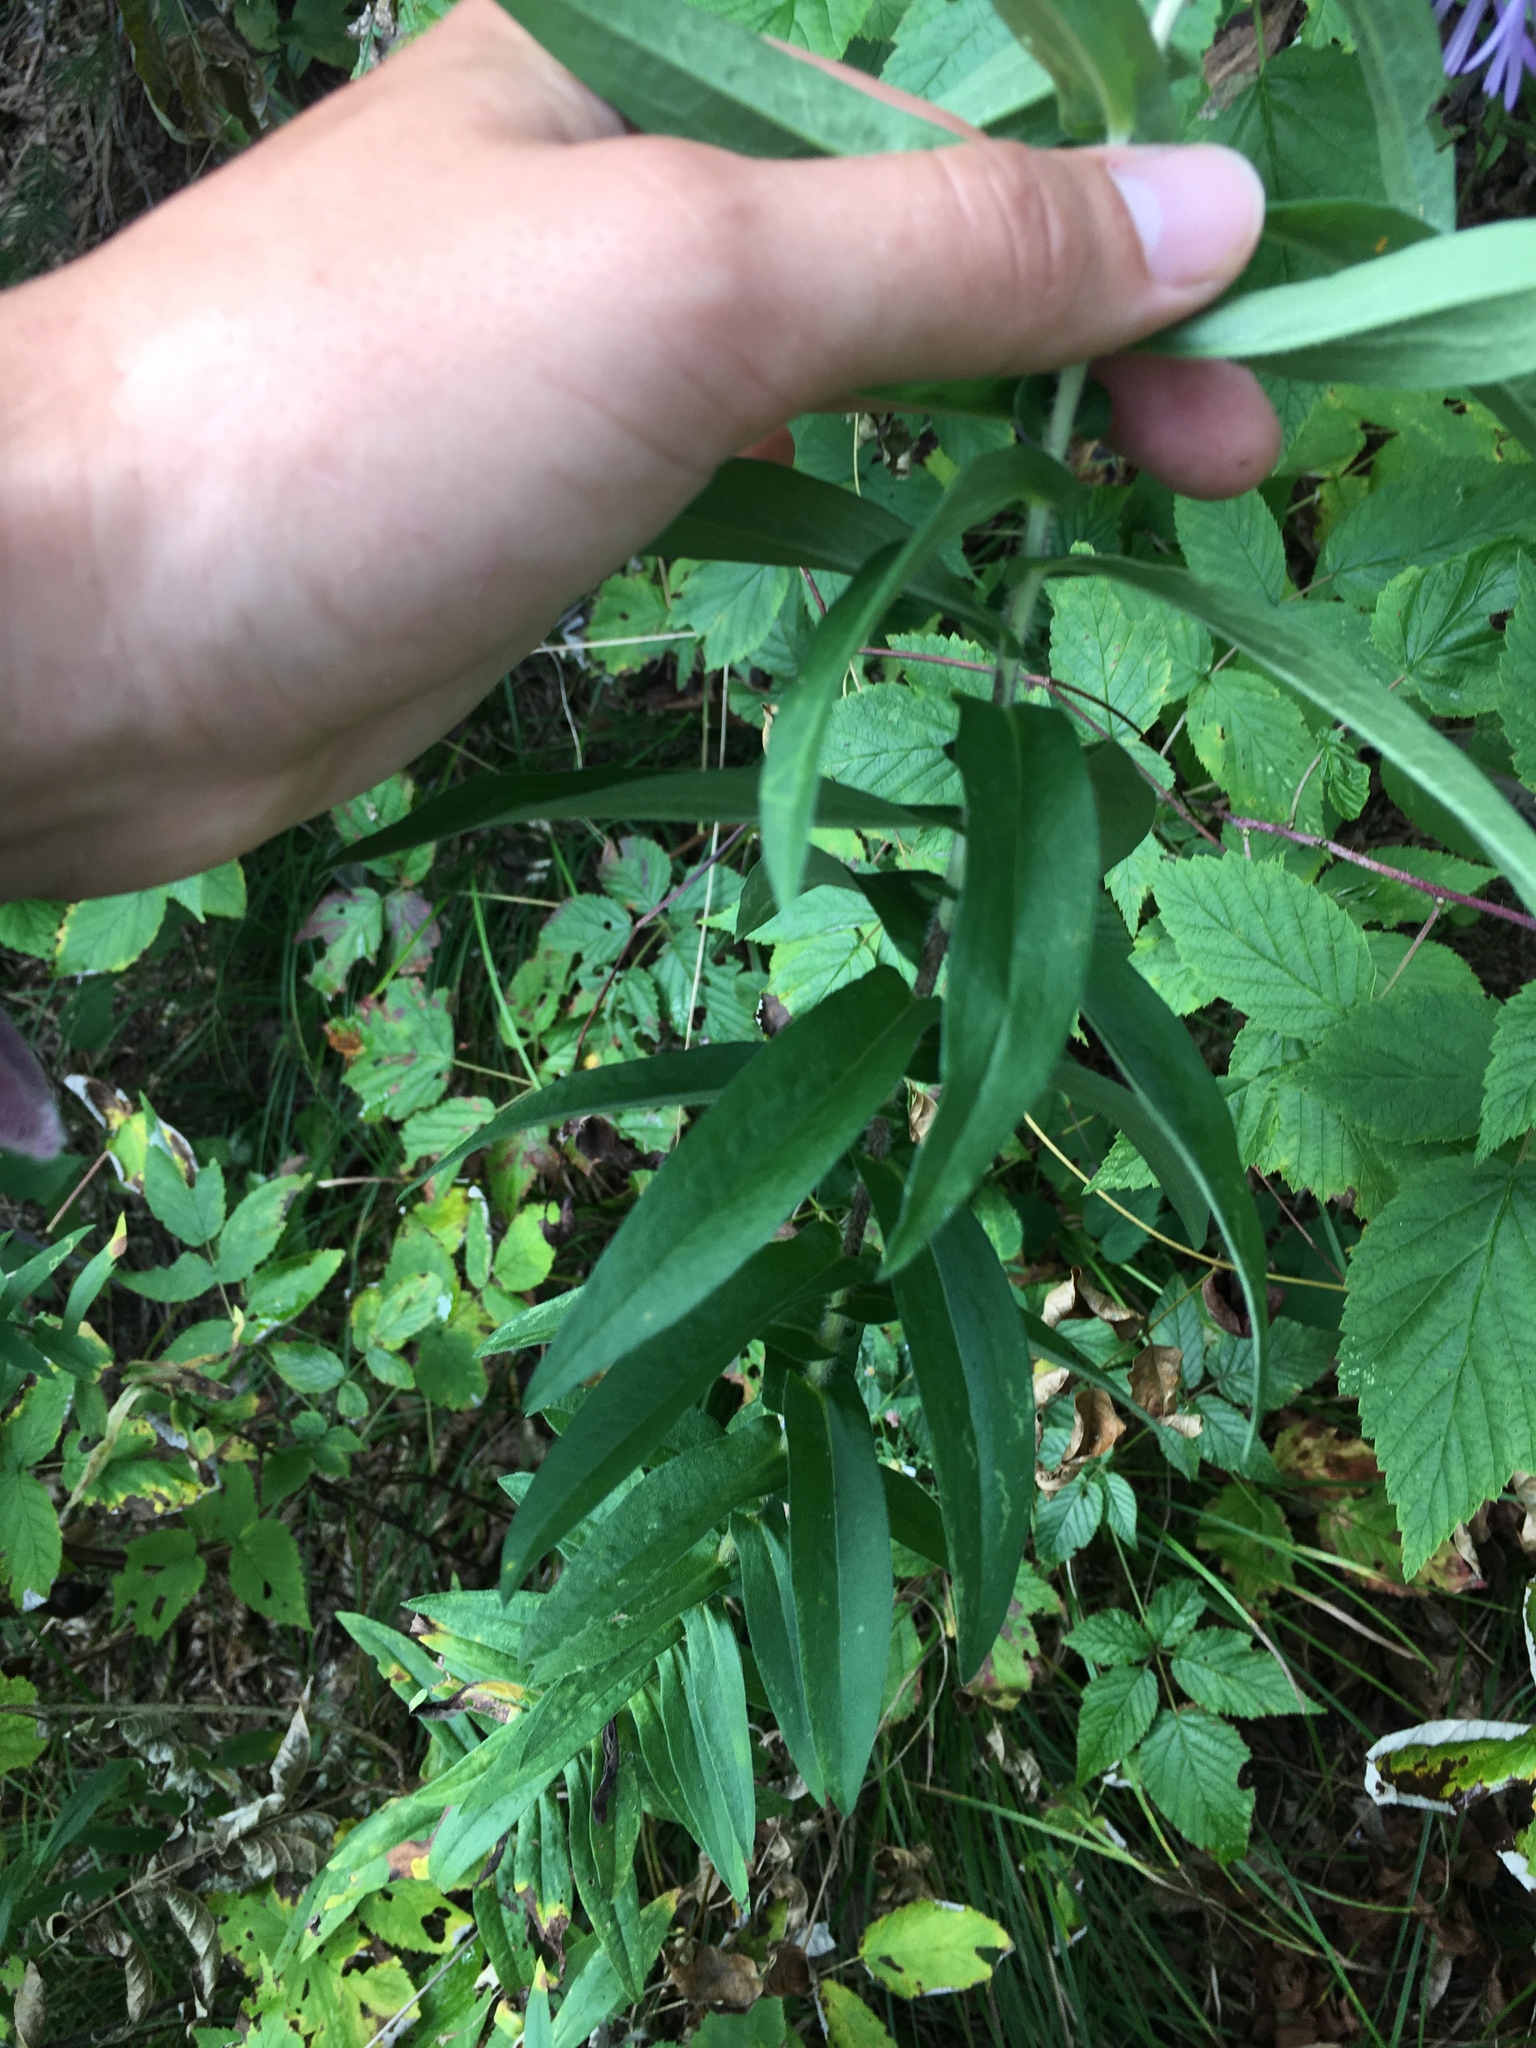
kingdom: Plantae
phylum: Tracheophyta
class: Magnoliopsida
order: Asterales
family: Asteraceae
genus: Symphyotrichum
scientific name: Symphyotrichum novae-angliae
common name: Michaelmas daisy
